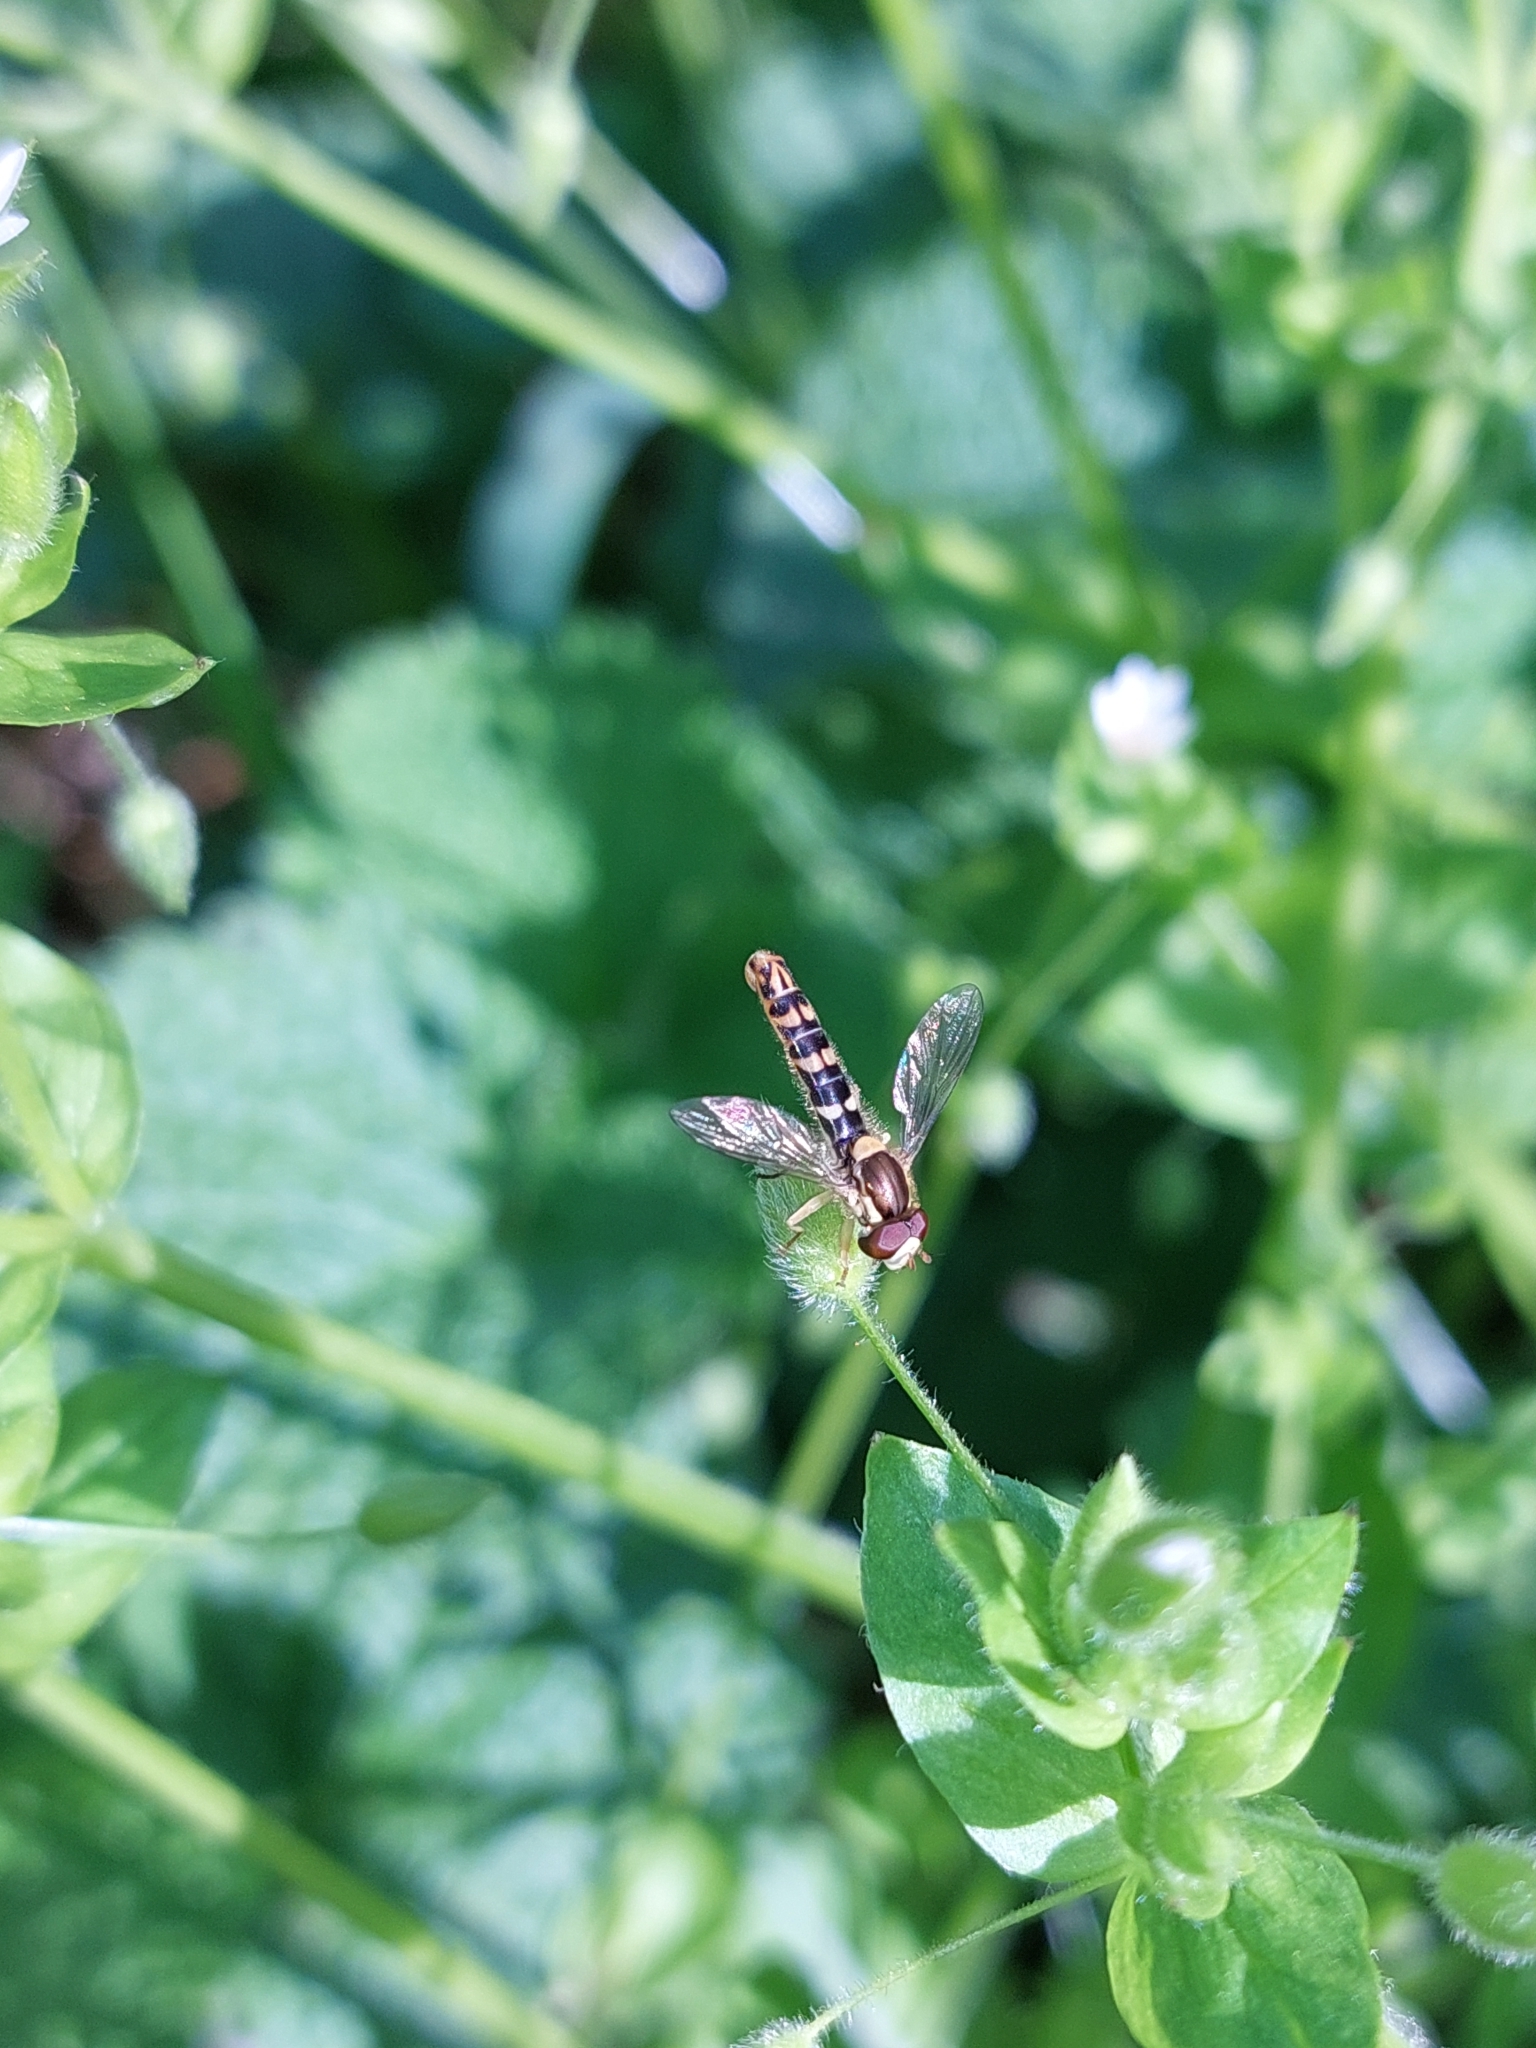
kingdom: Animalia
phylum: Arthropoda
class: Insecta
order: Diptera
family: Syrphidae
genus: Sphaerophoria
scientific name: Sphaerophoria scripta
